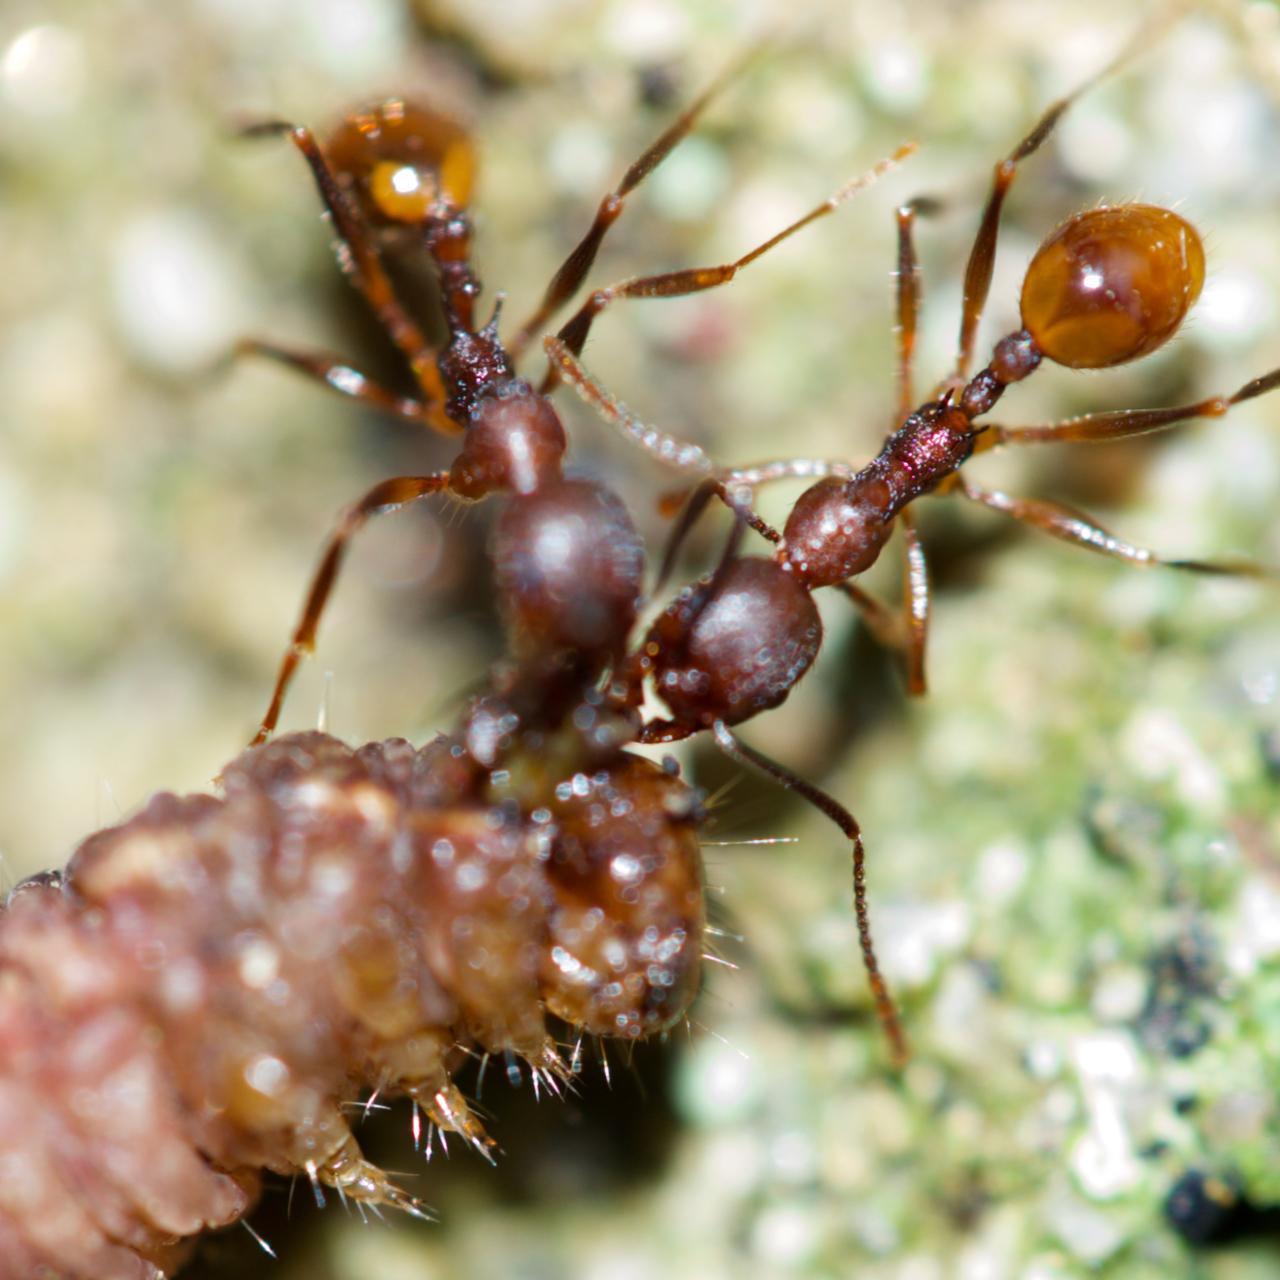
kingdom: Animalia
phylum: Arthropoda
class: Insecta
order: Hymenoptera
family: Formicidae
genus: Aphaenogaster
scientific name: Aphaenogaster fulva
